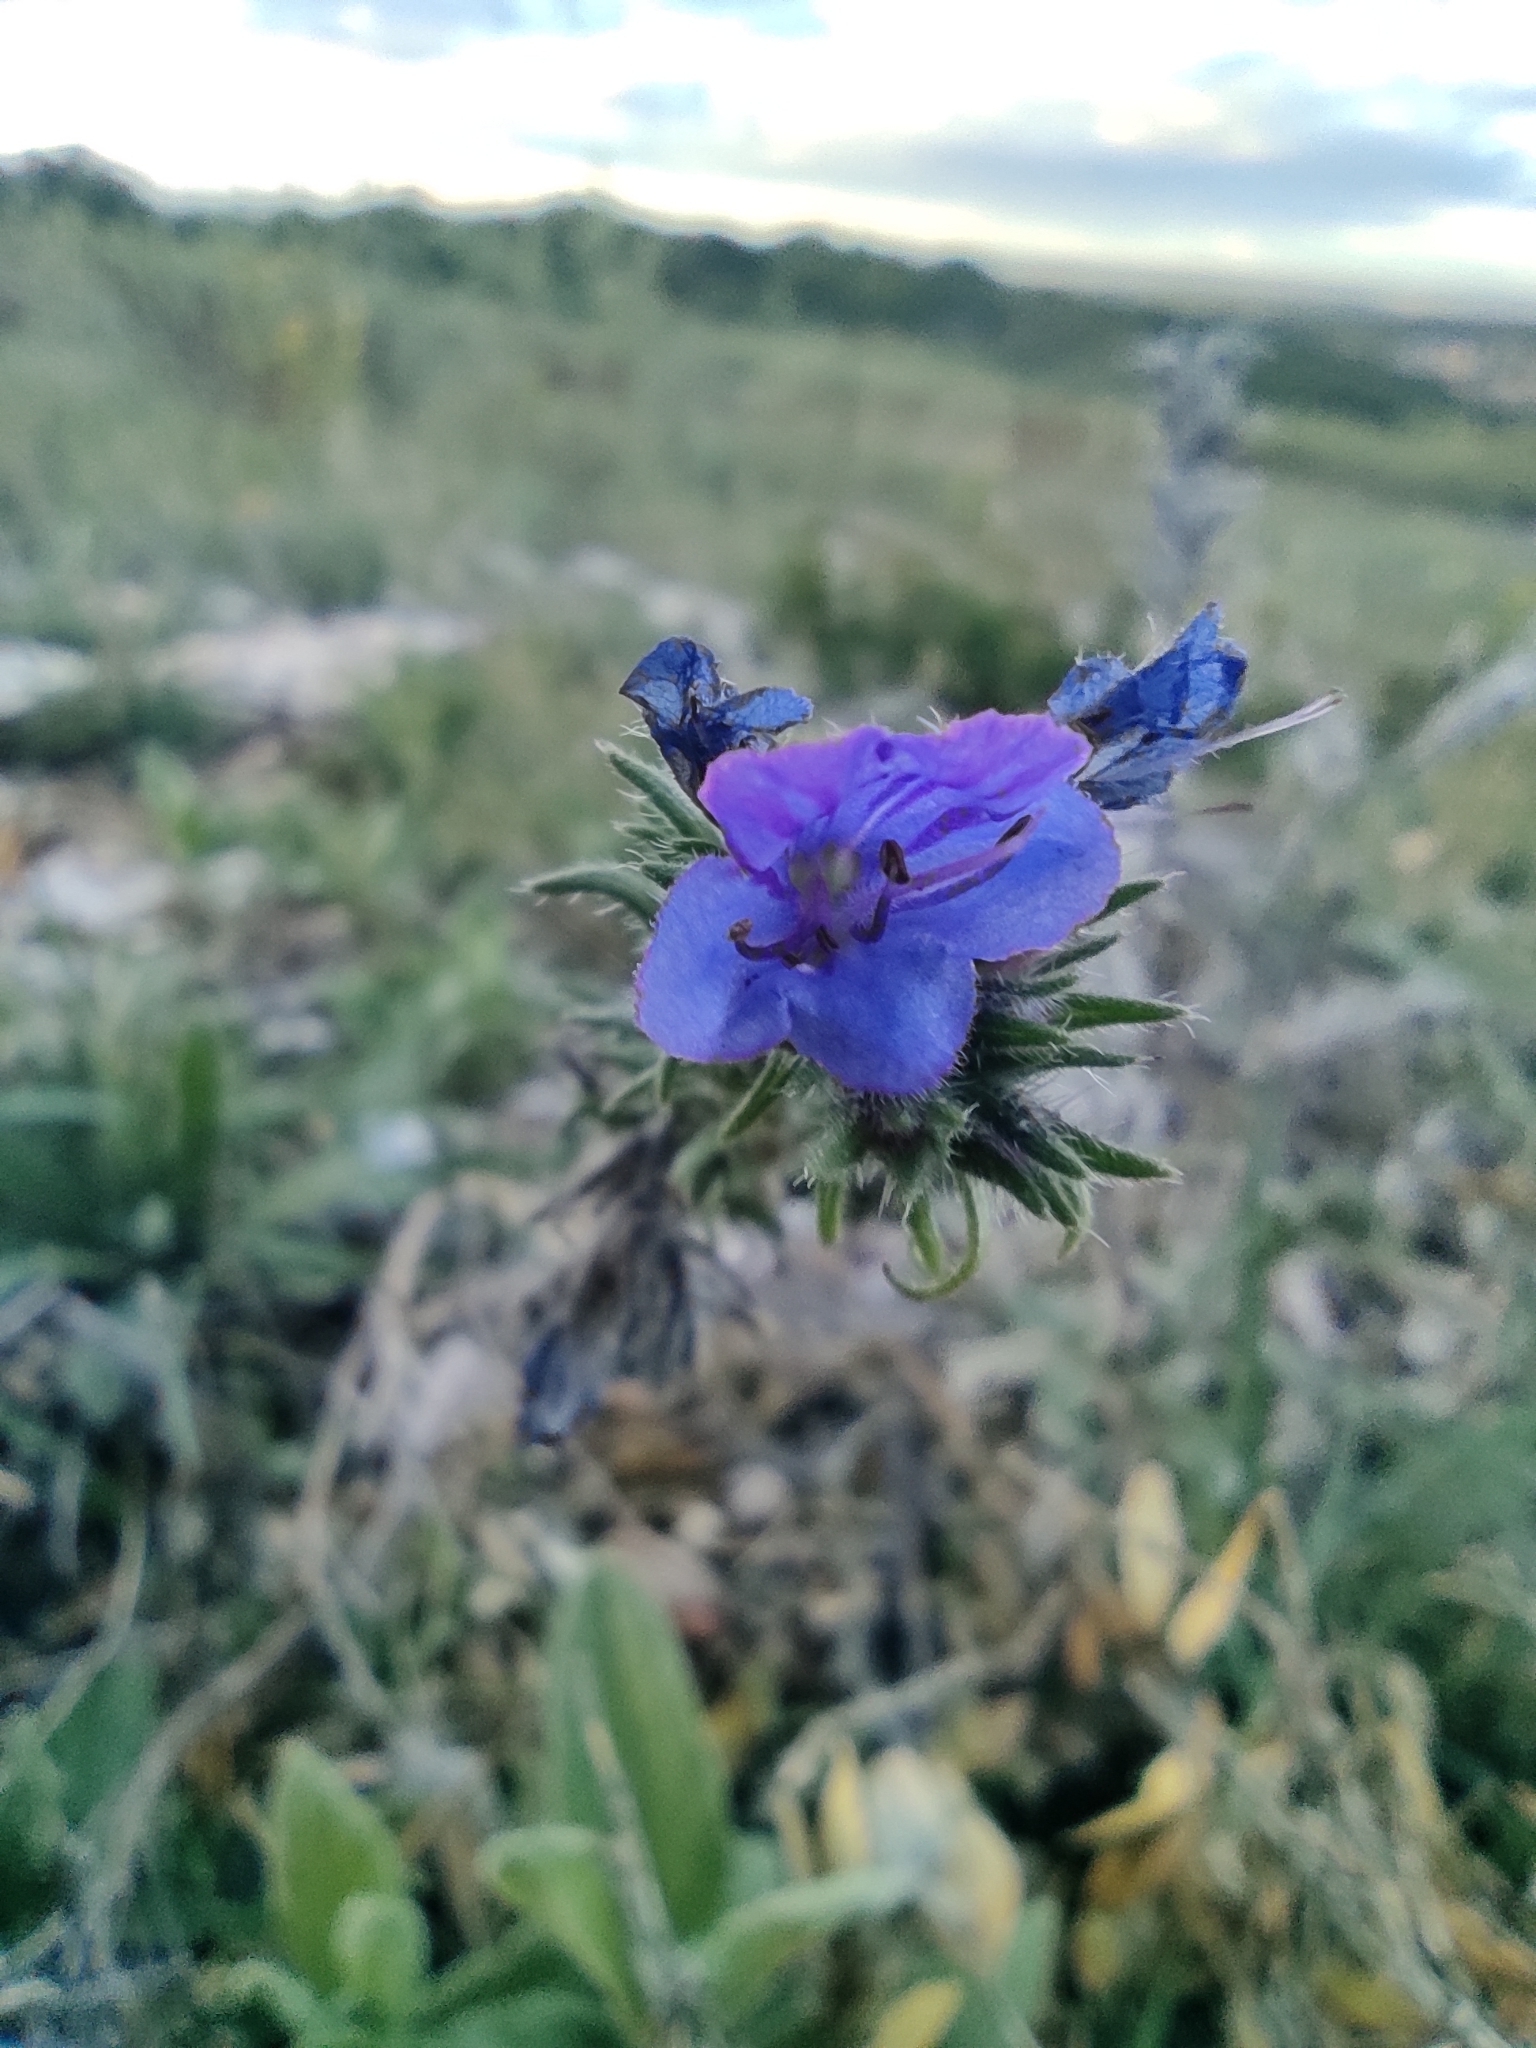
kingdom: Plantae
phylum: Tracheophyta
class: Magnoliopsida
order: Boraginales
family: Boraginaceae
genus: Echium
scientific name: Echium vulgare
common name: Common viper's bugloss
